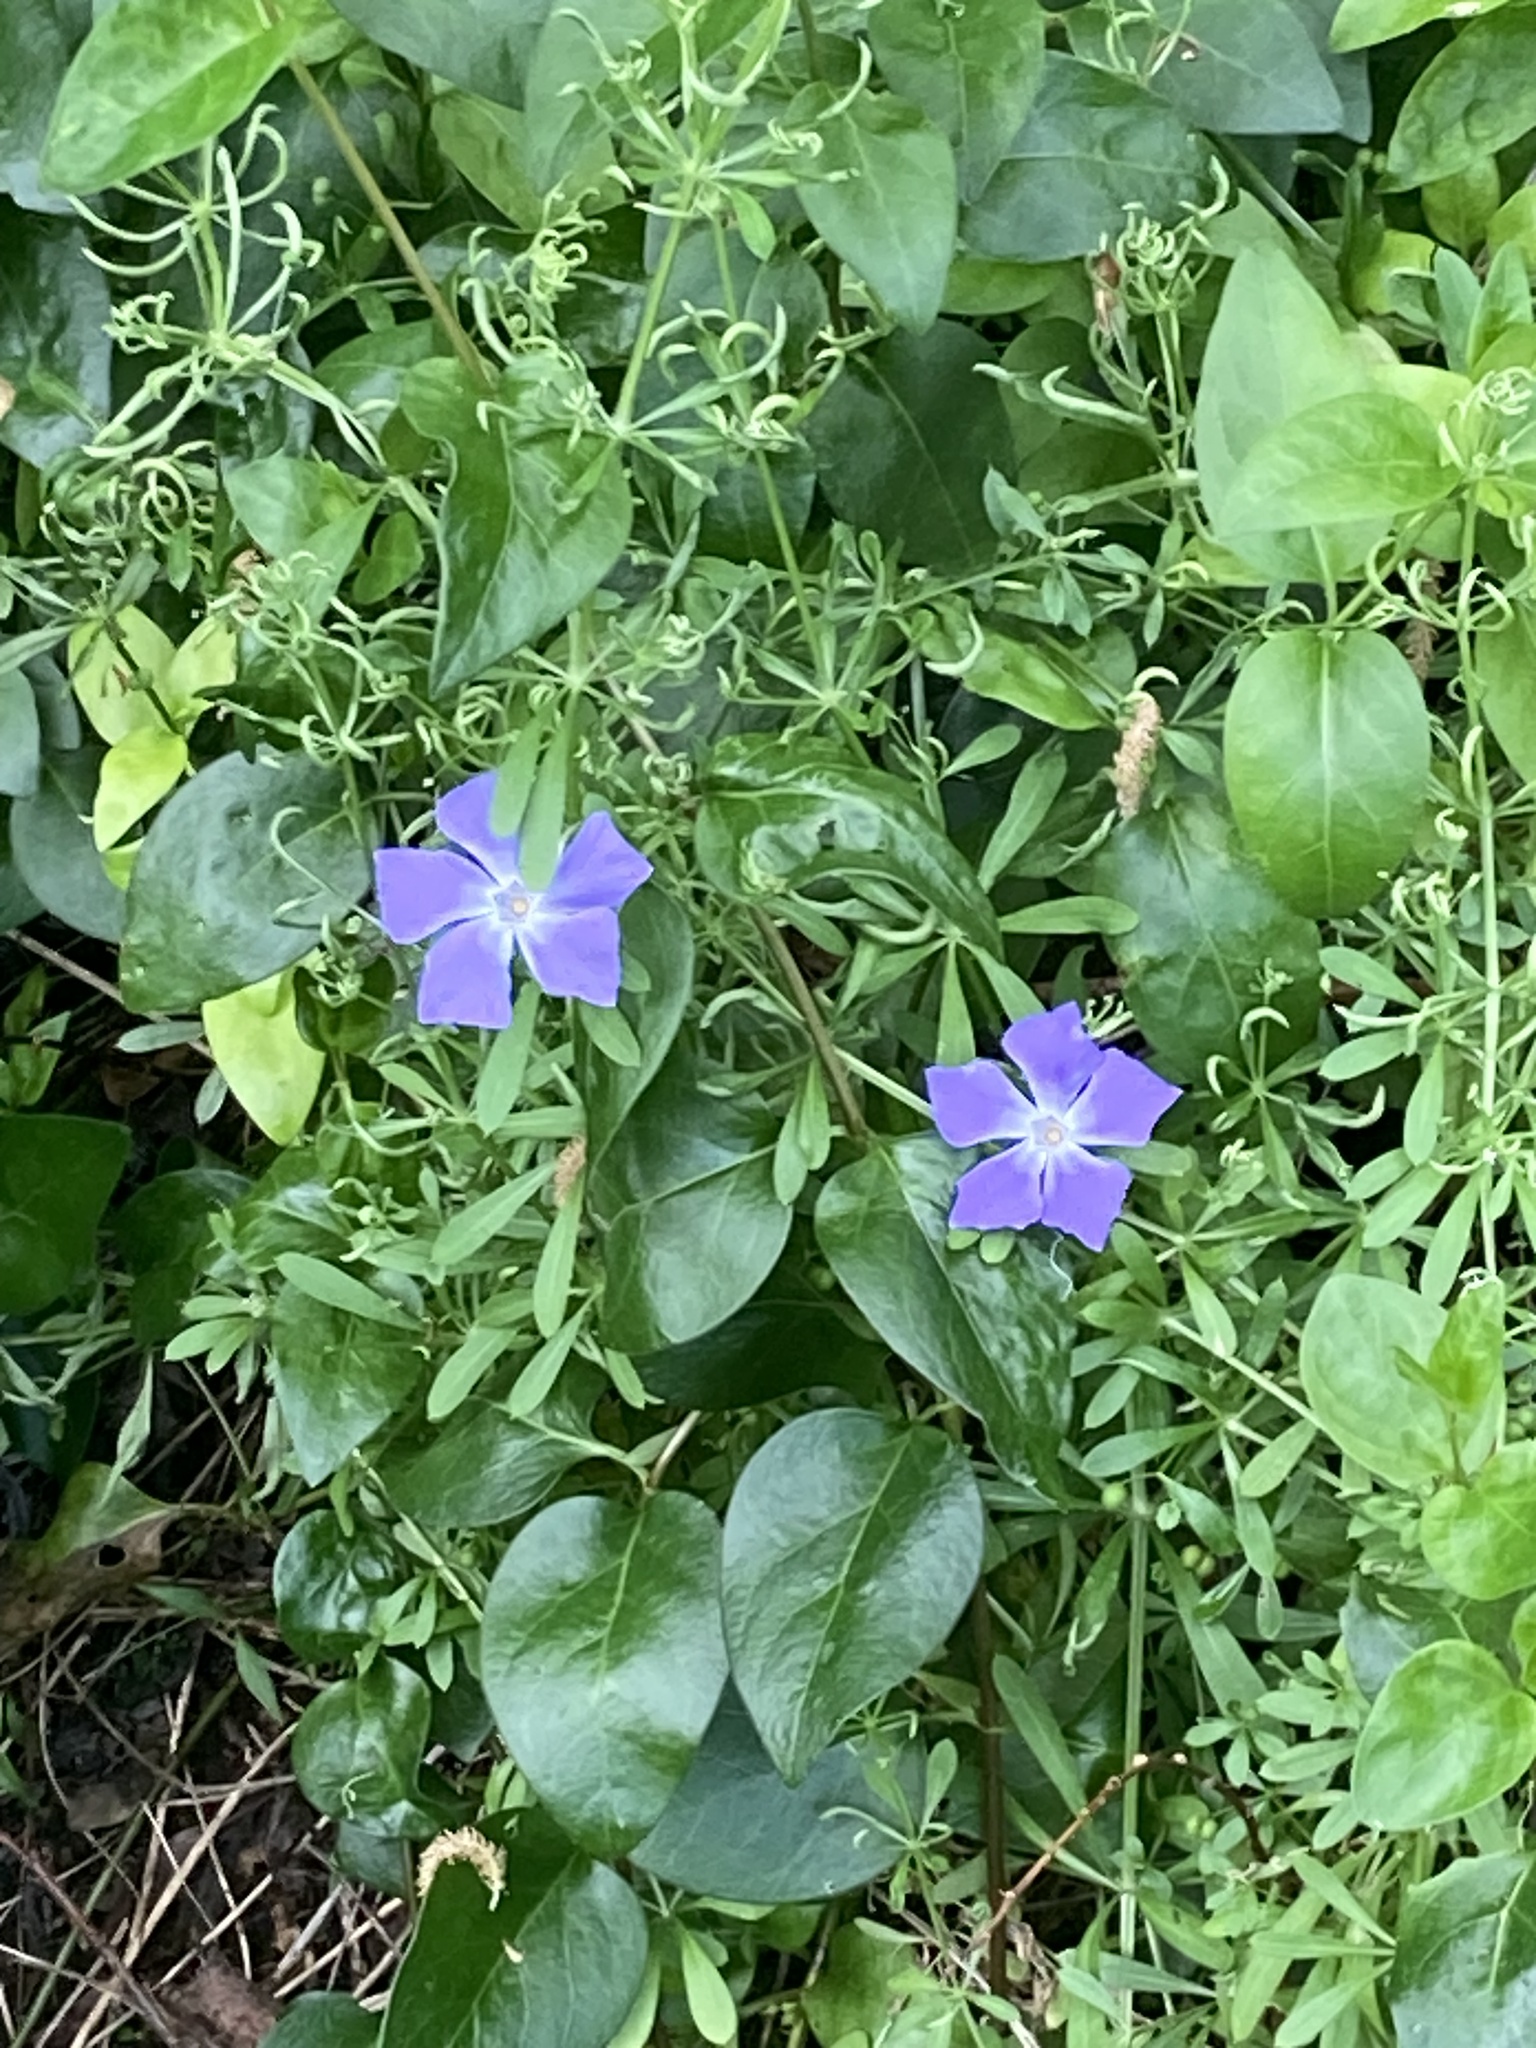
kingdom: Plantae
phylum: Tracheophyta
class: Magnoliopsida
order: Gentianales
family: Apocynaceae
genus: Vinca
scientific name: Vinca major
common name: Greater periwinkle
